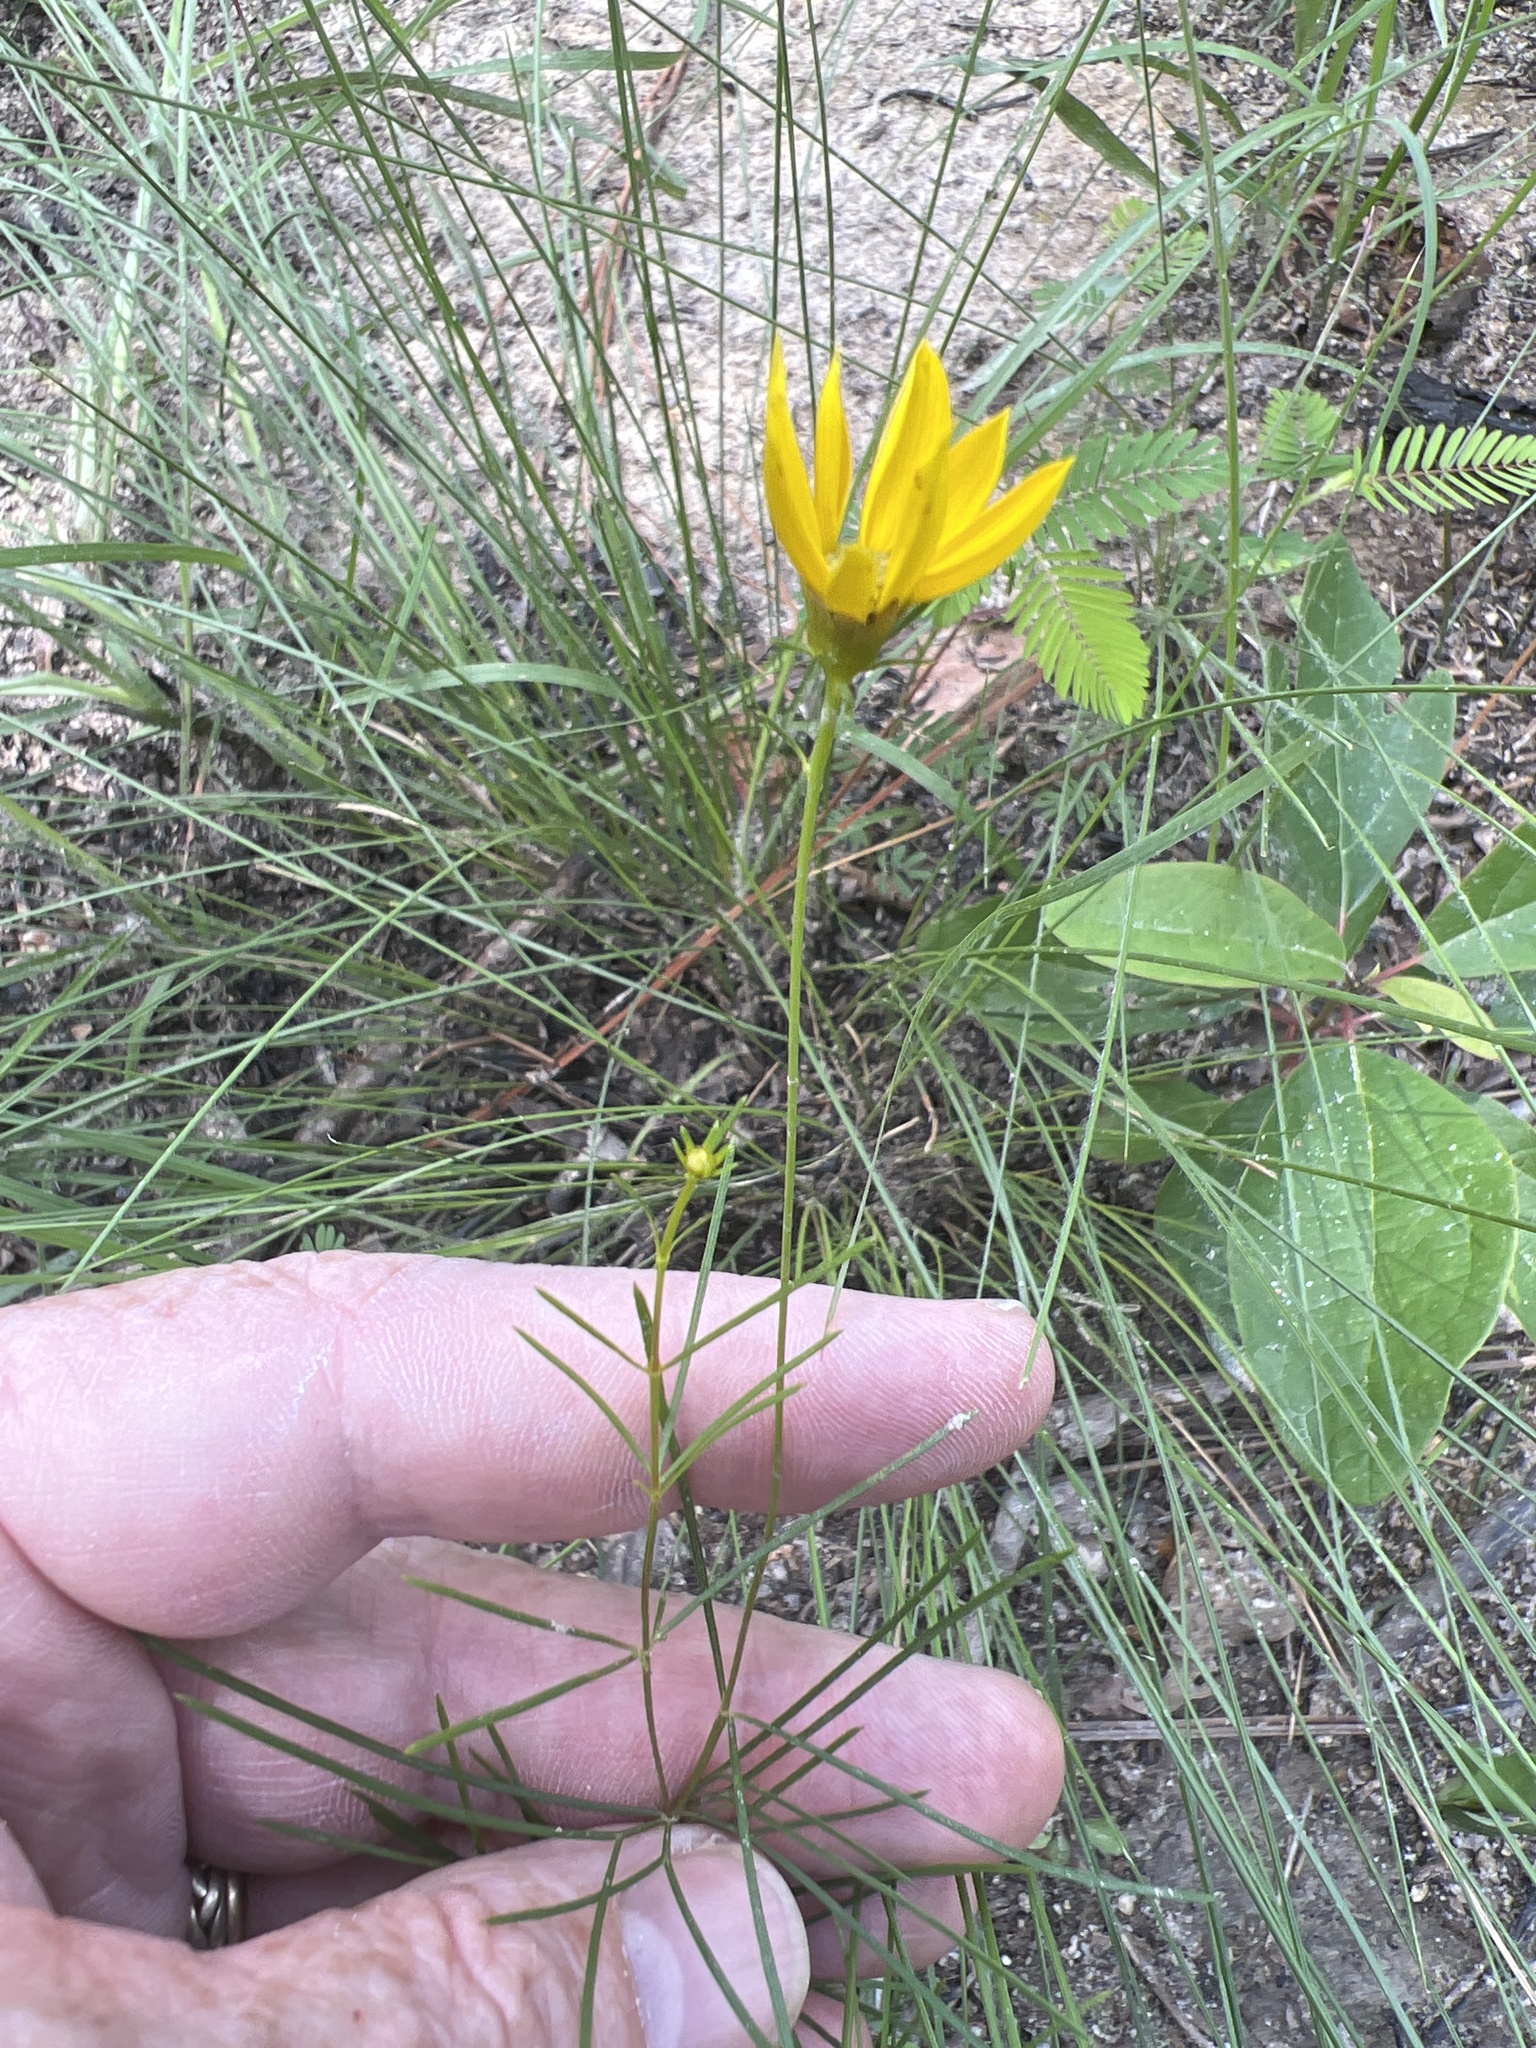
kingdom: Plantae
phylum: Tracheophyta
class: Magnoliopsida
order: Asterales
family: Asteraceae
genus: Coreopsis
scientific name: Coreopsis verticillata
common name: Whorled tickseed
